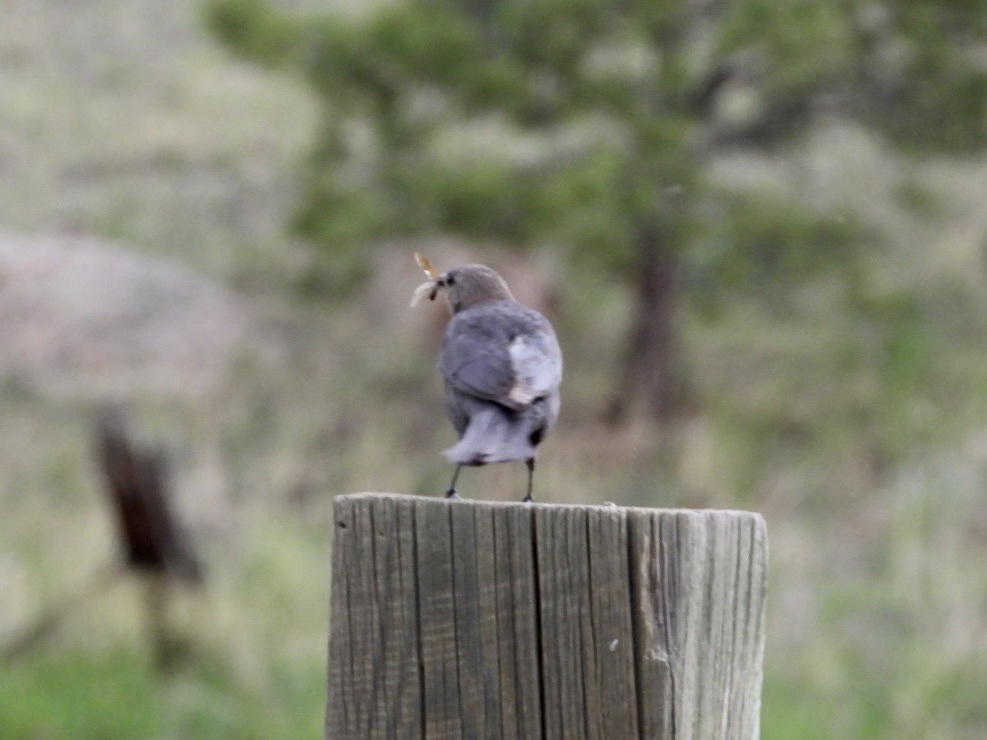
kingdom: Animalia
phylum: Chordata
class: Aves
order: Passeriformes
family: Icteridae
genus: Euphagus
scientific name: Euphagus cyanocephalus
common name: Brewer's blackbird
